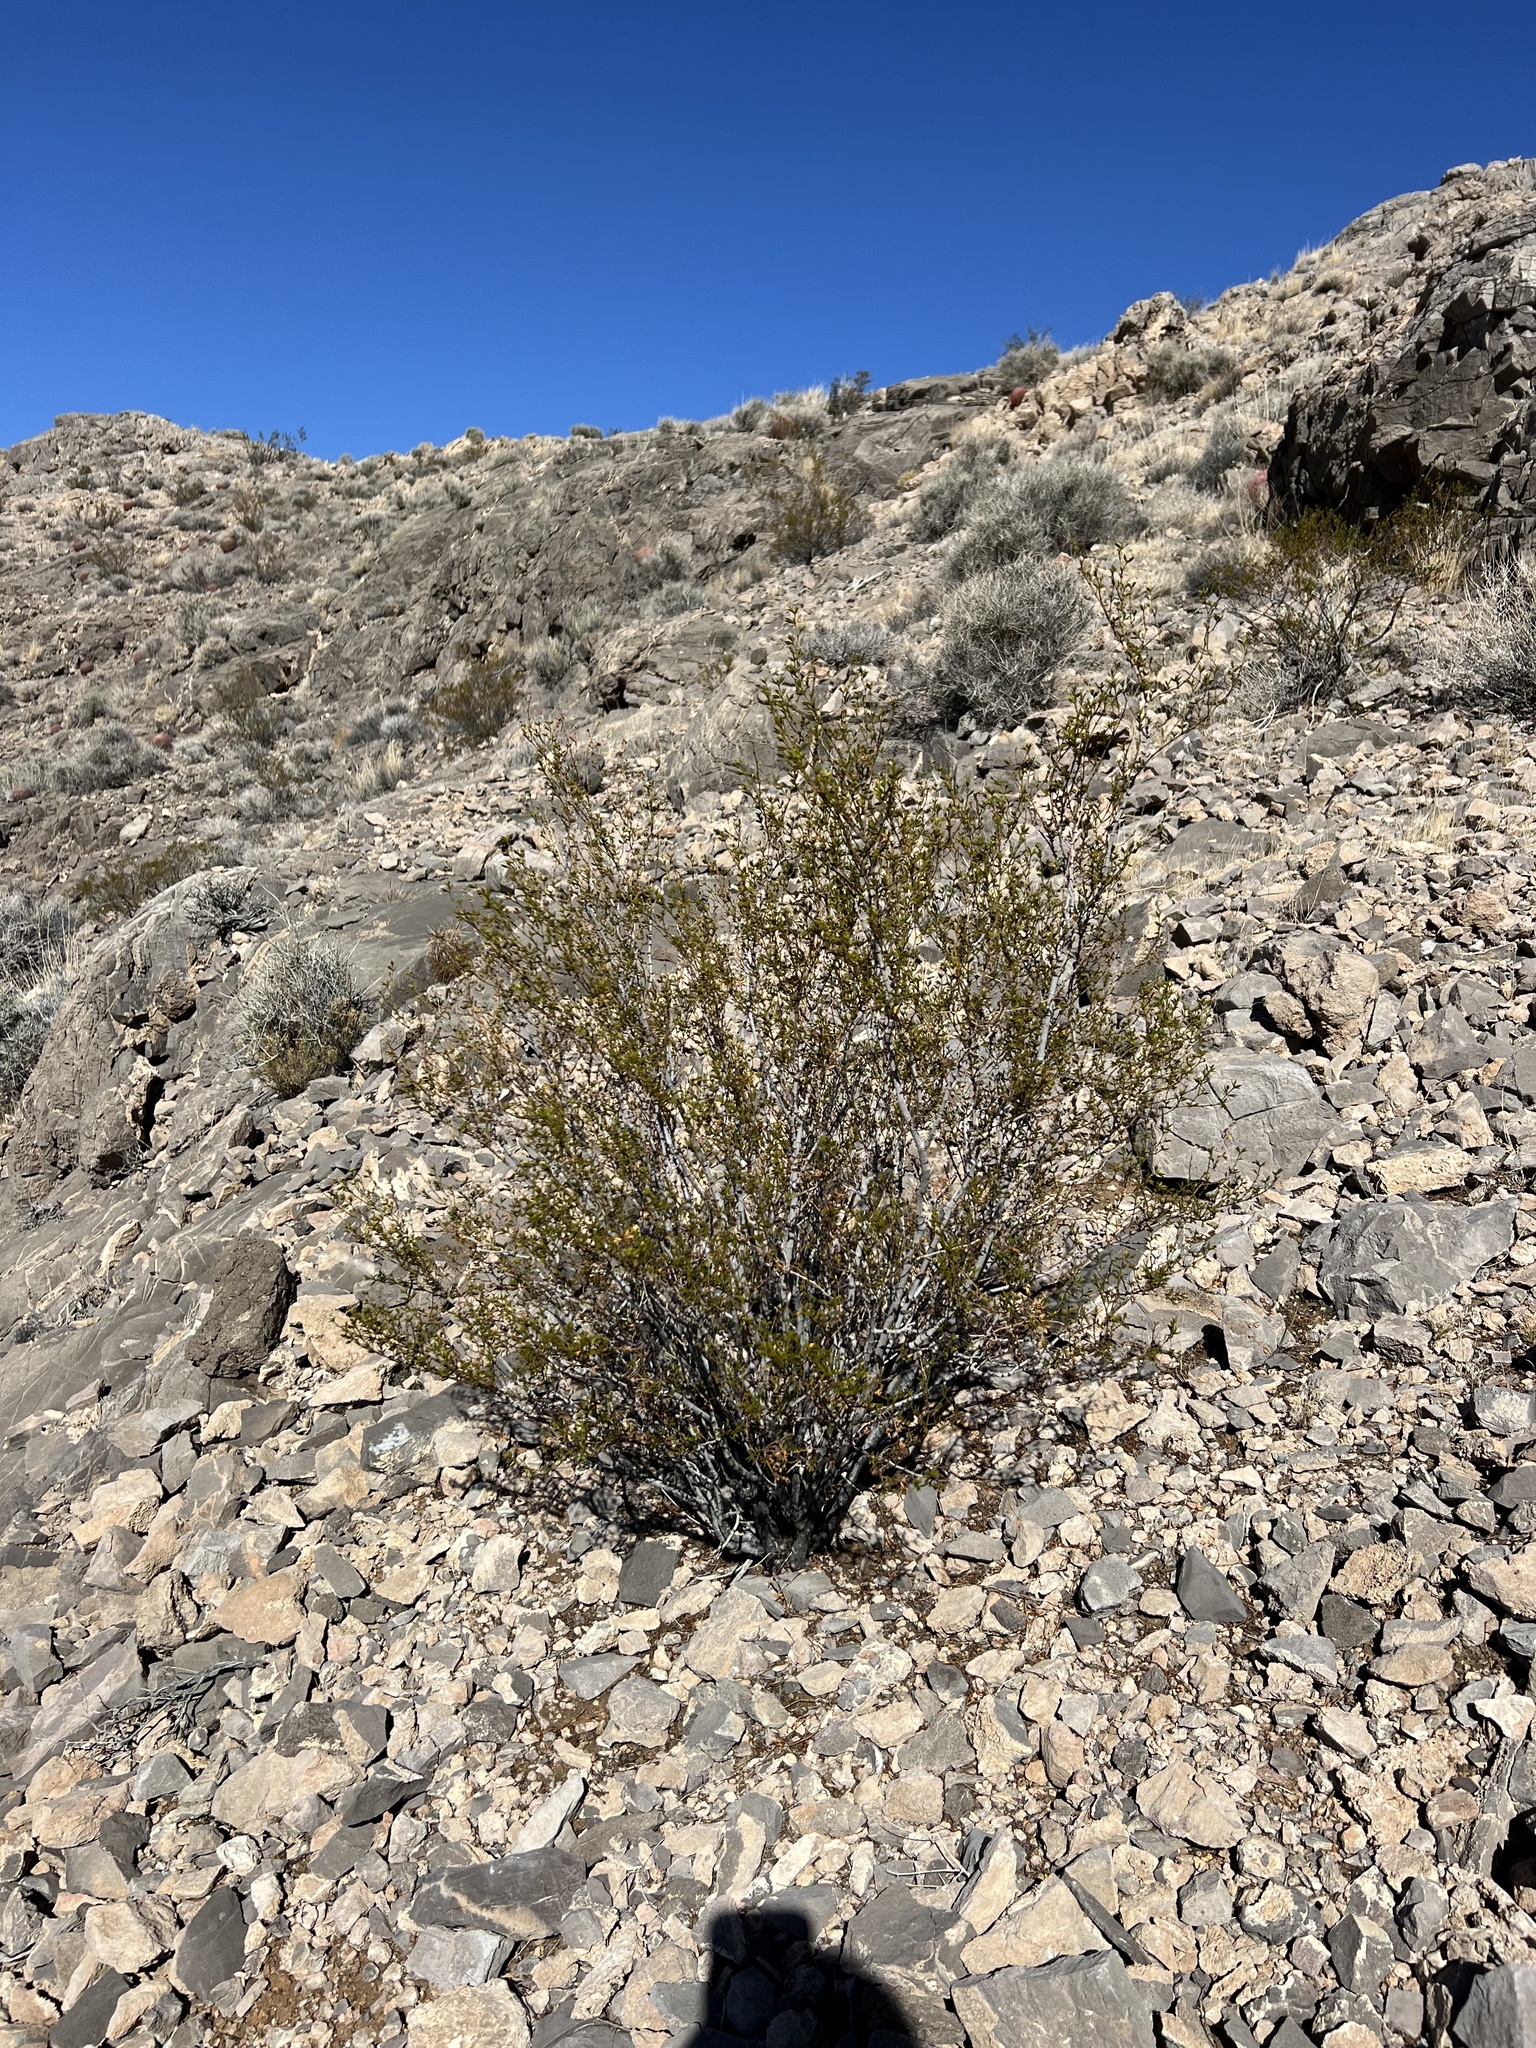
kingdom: Plantae
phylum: Tracheophyta
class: Magnoliopsida
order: Zygophyllales
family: Zygophyllaceae
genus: Larrea
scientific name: Larrea tridentata
